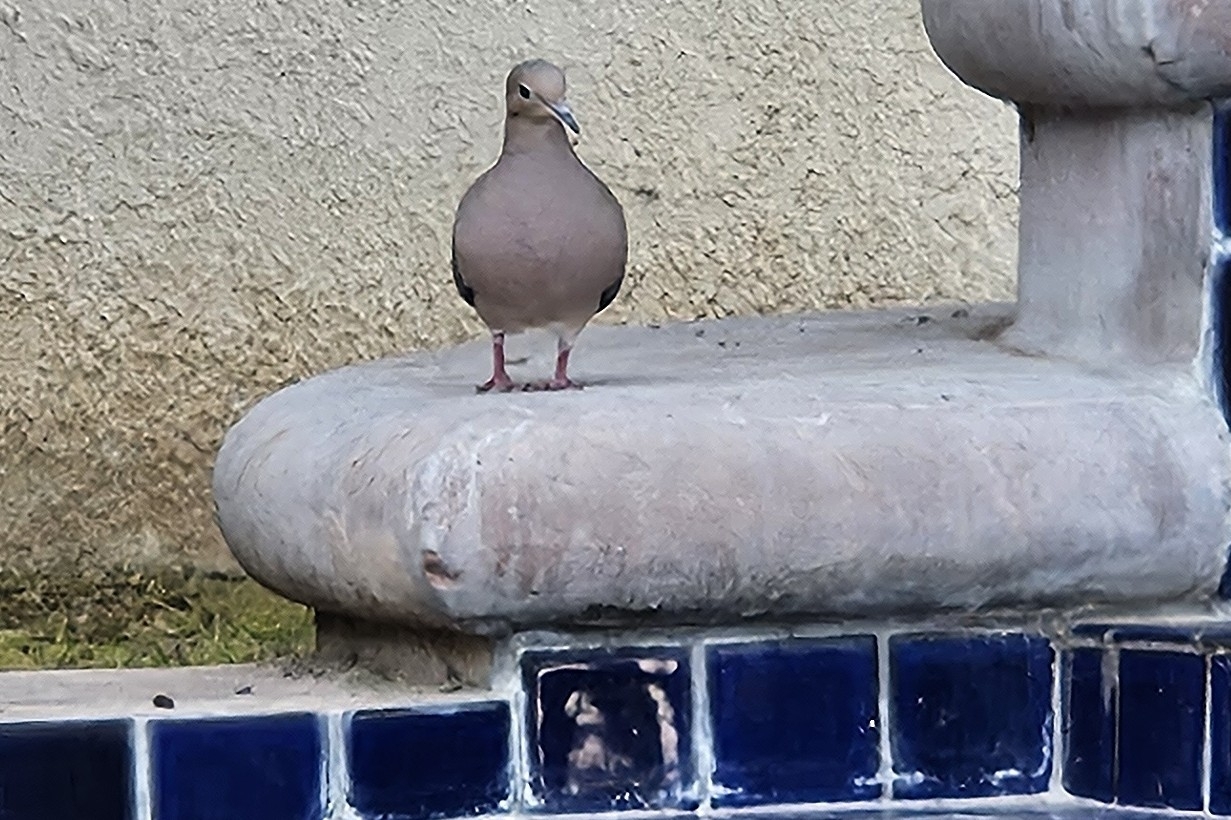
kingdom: Animalia
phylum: Chordata
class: Aves
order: Columbiformes
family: Columbidae
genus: Zenaida
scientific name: Zenaida macroura
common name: Mourning dove
